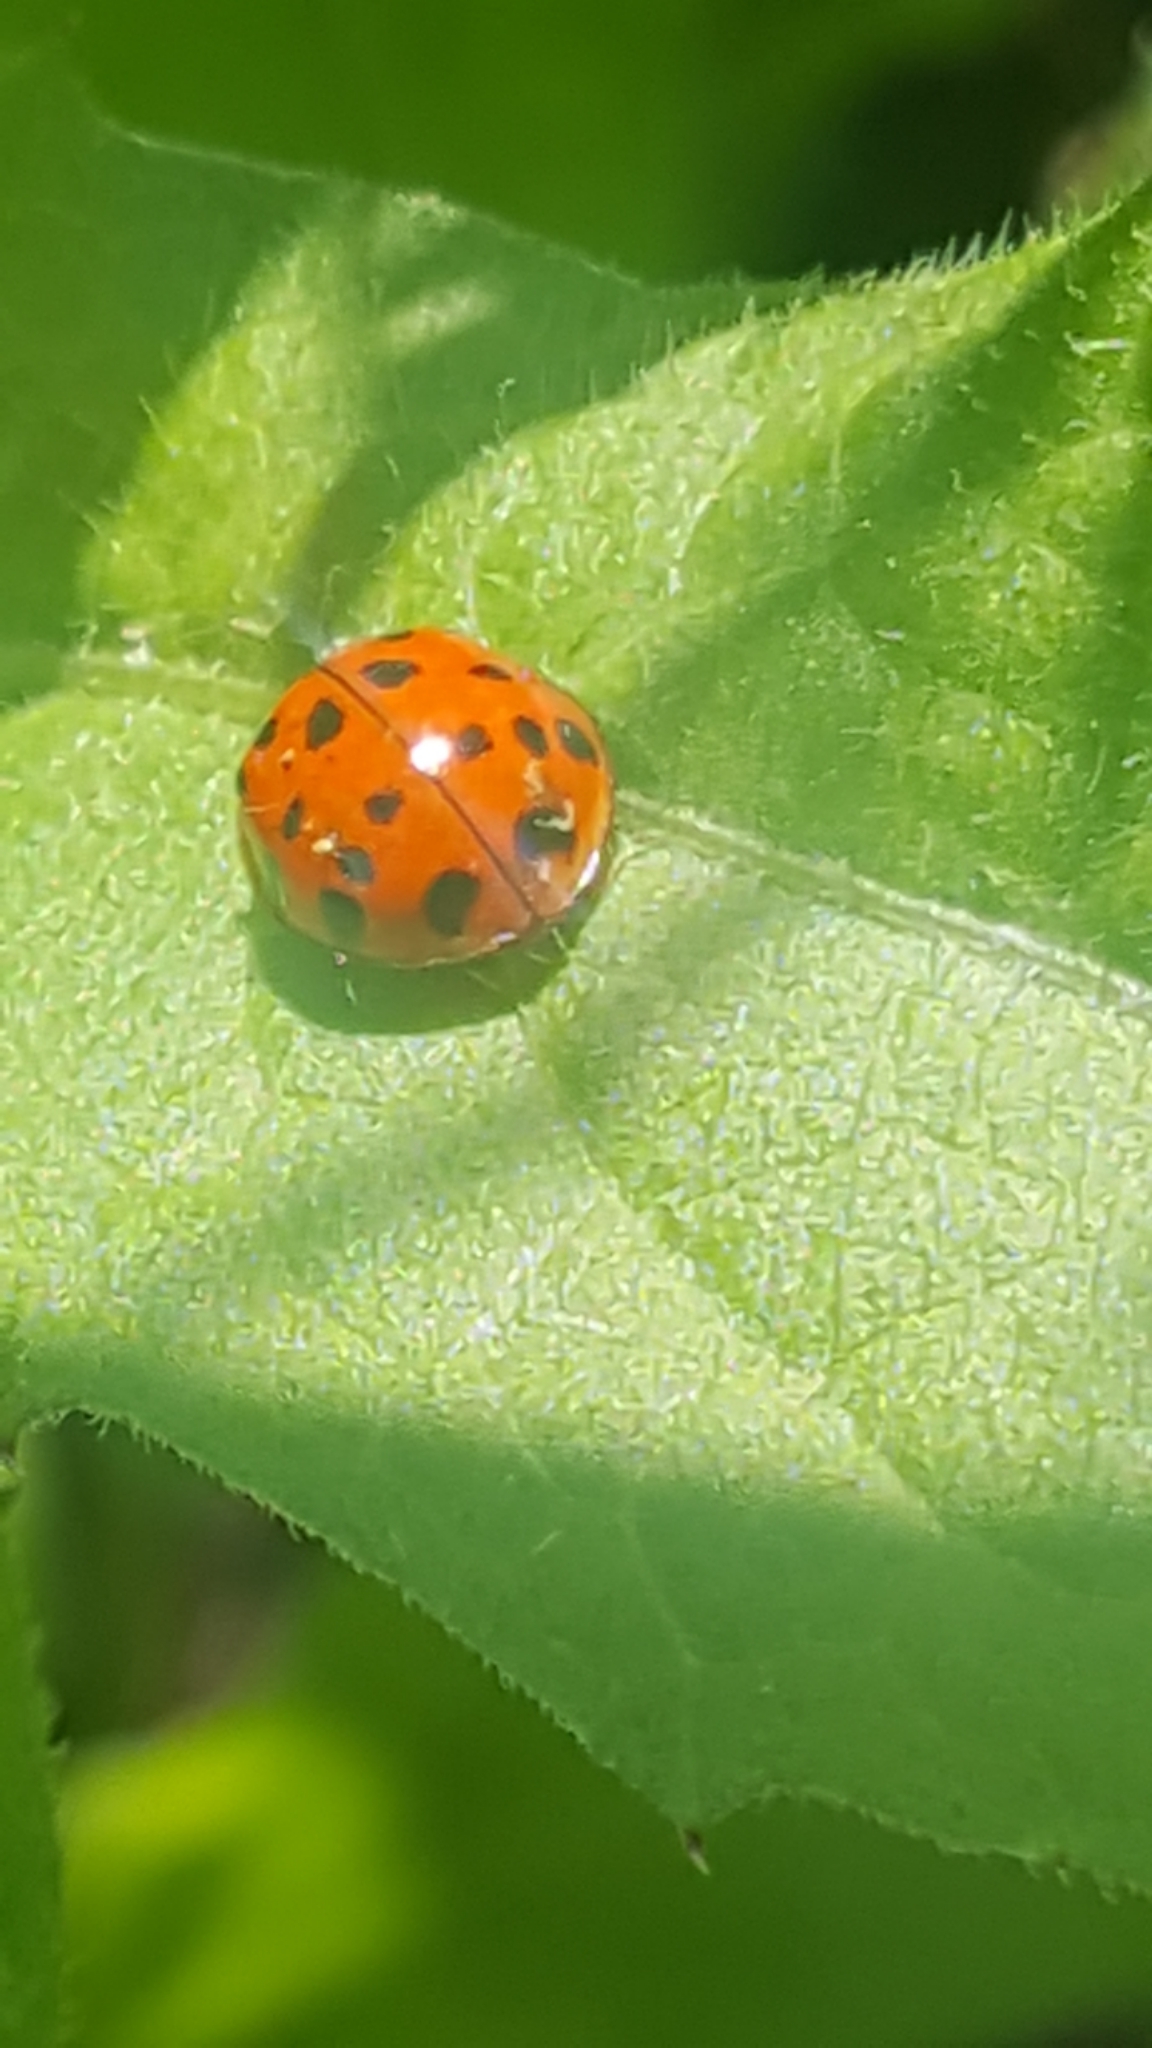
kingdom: Animalia
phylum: Arthropoda
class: Insecta
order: Coleoptera
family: Coccinellidae
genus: Harmonia
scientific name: Harmonia axyridis
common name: Harlequin ladybird
